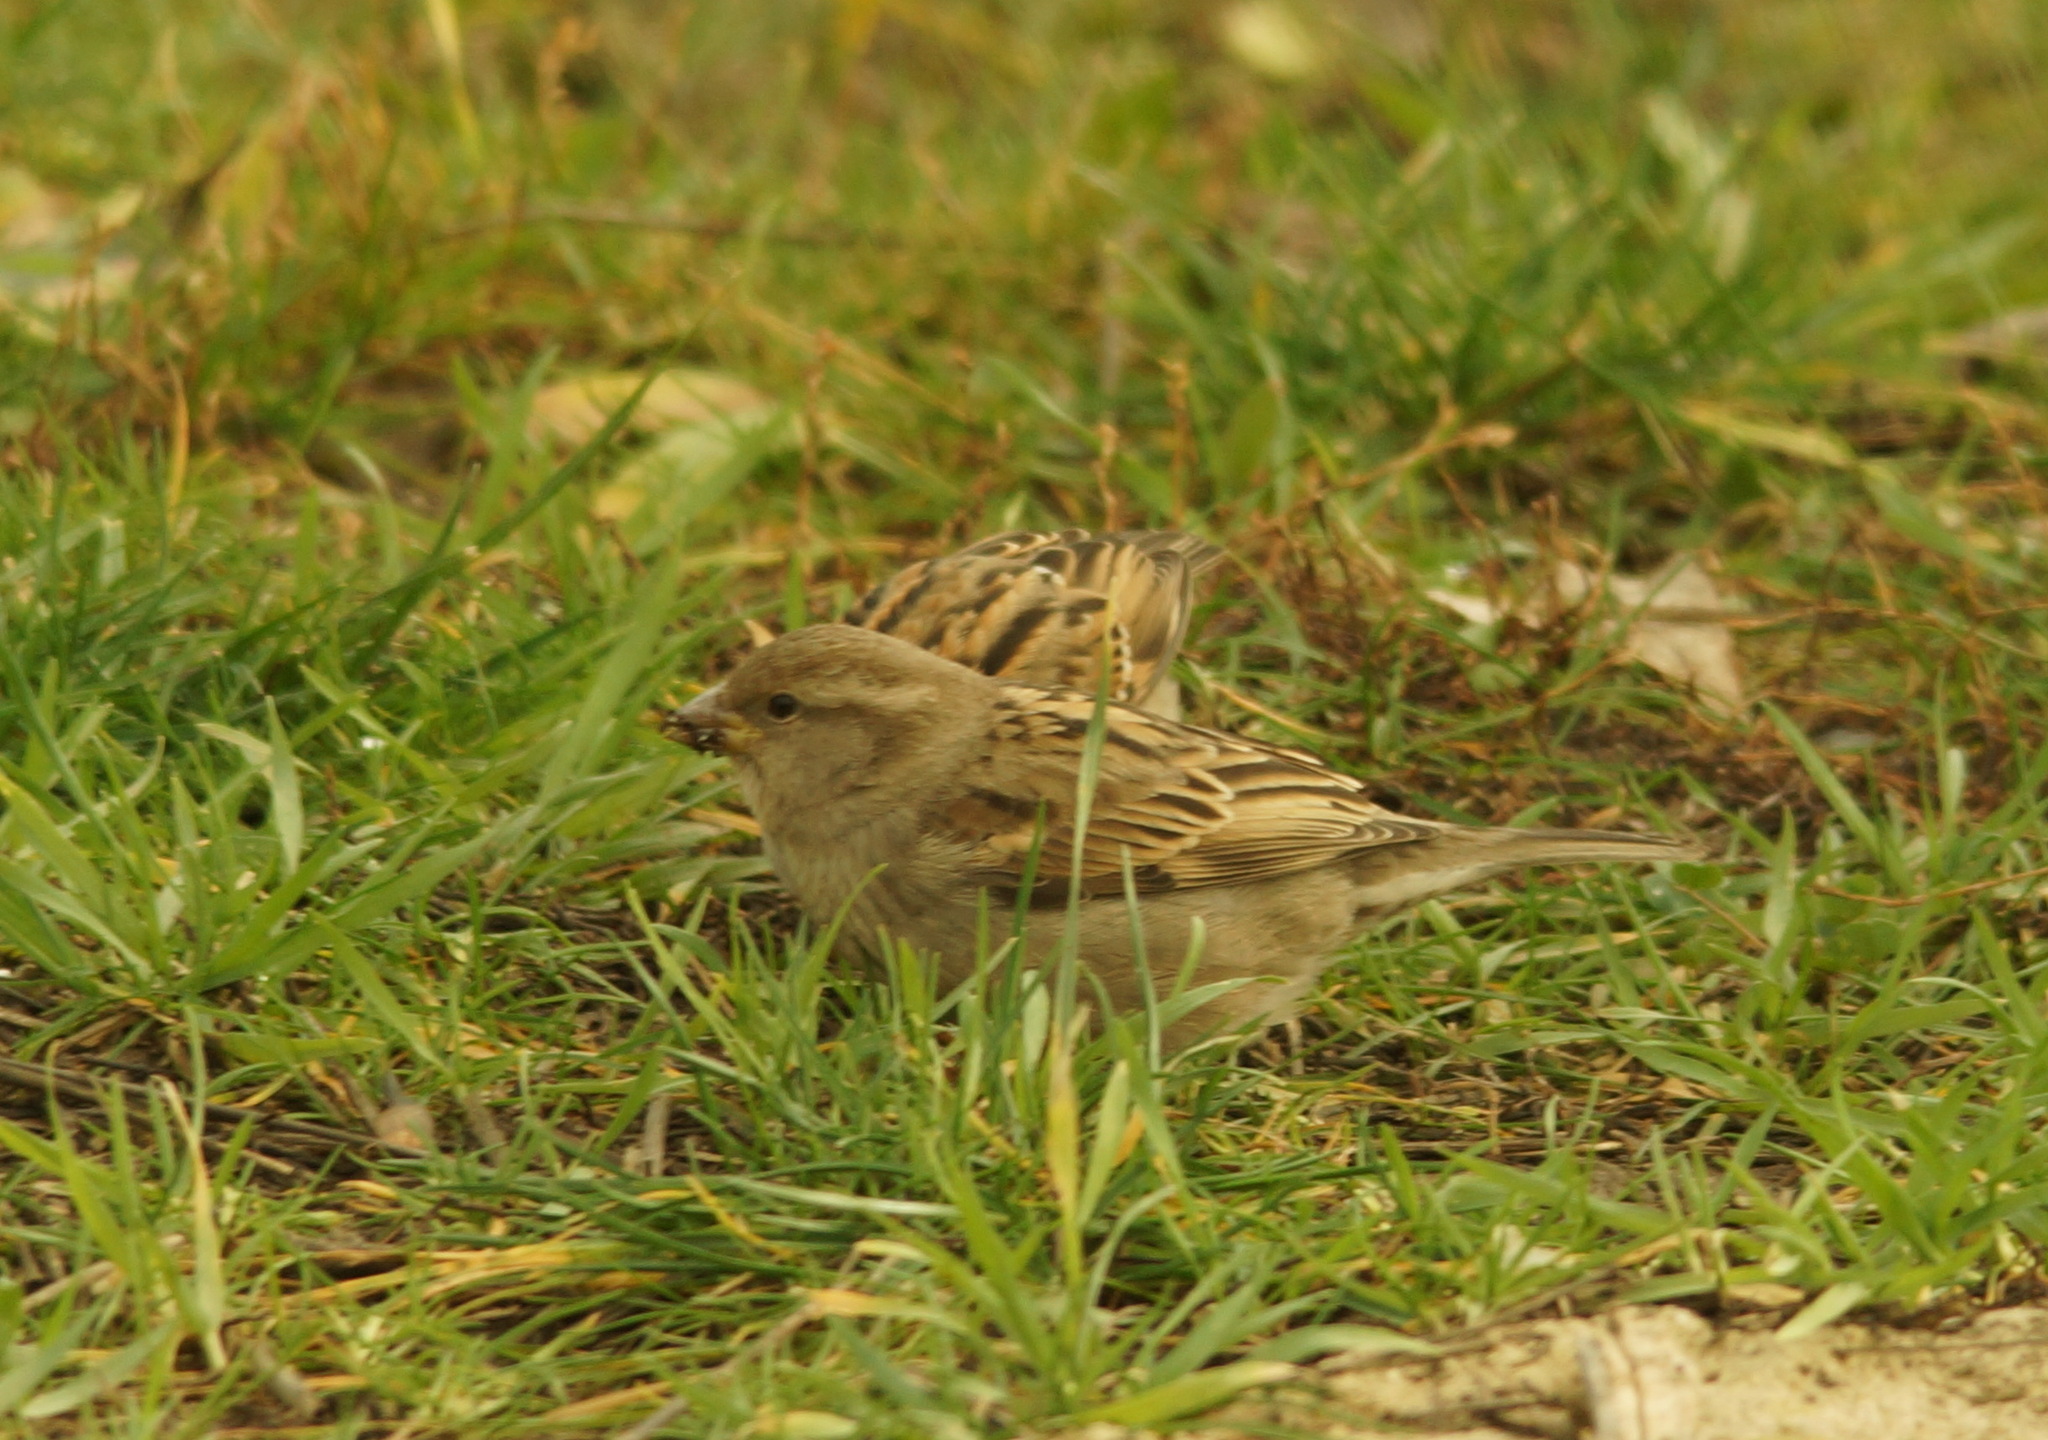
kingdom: Animalia
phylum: Chordata
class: Aves
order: Passeriformes
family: Passeridae
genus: Passer
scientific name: Passer domesticus
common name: House sparrow
